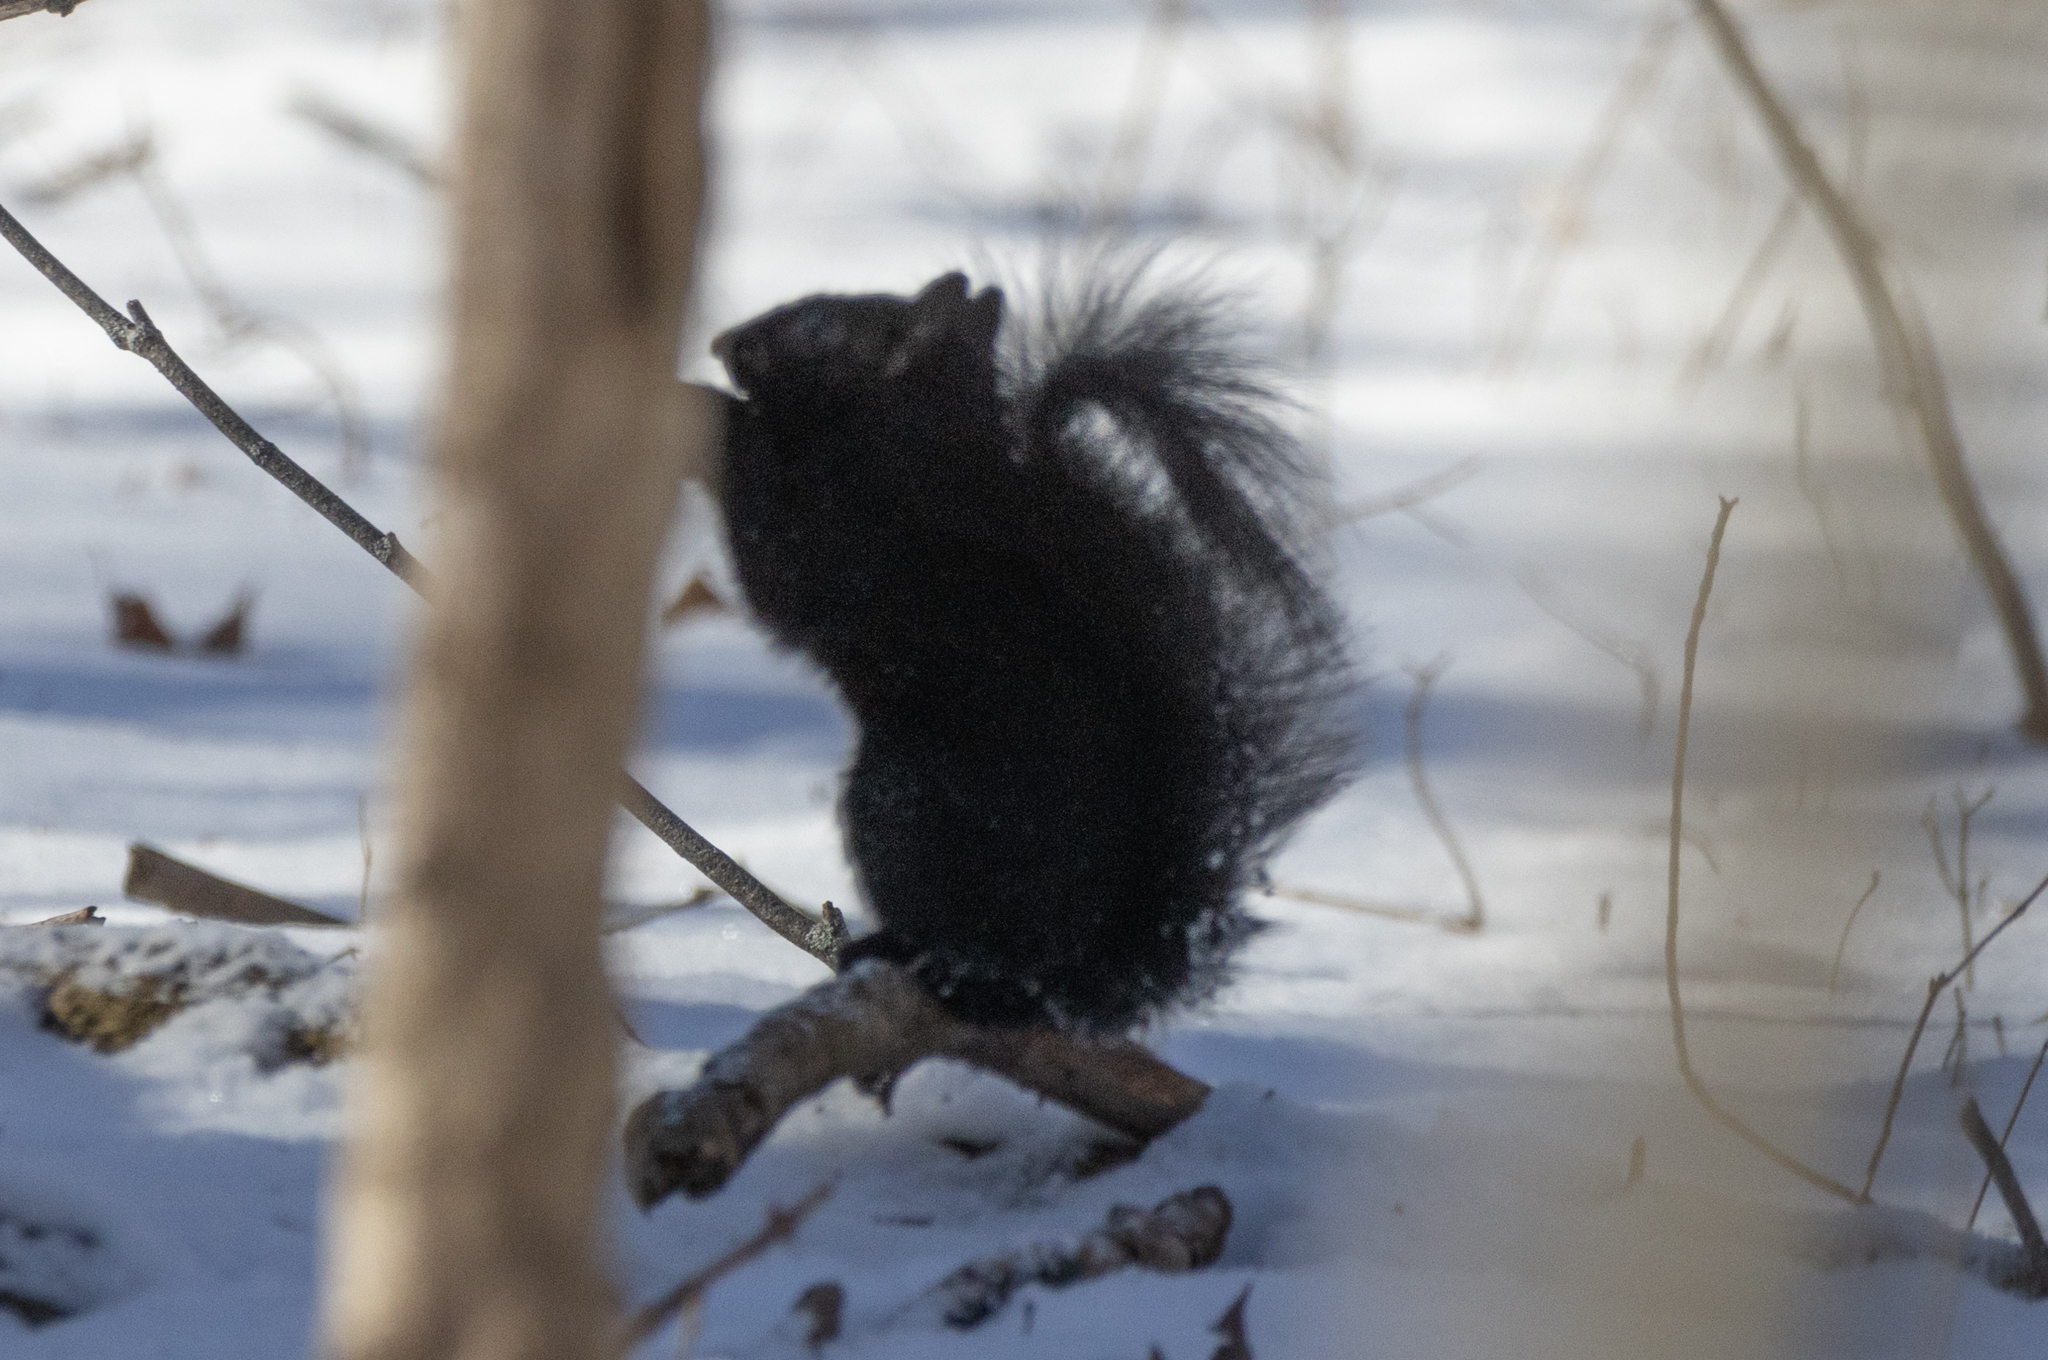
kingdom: Animalia
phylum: Chordata
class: Mammalia
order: Rodentia
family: Sciuridae
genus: Sciurus
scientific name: Sciurus carolinensis
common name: Eastern gray squirrel
